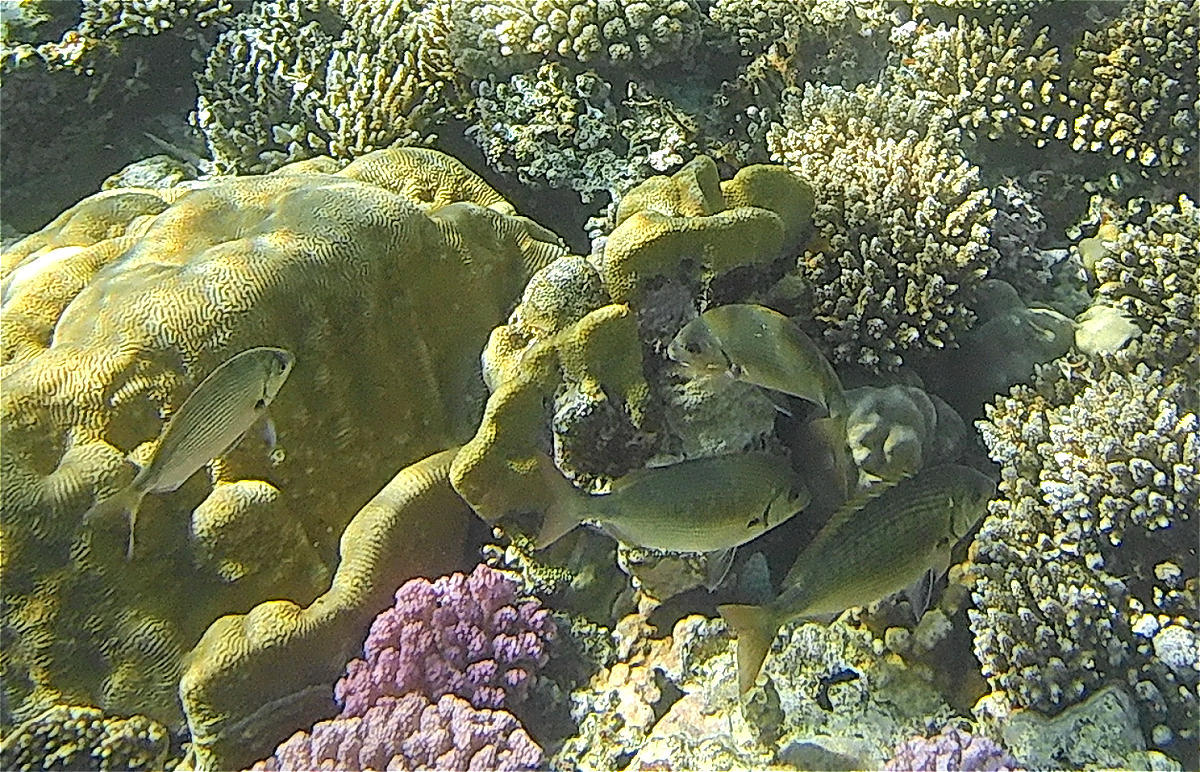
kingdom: Animalia
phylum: Chordata
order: Perciformes
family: Sparidae
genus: Diplodus
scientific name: Diplodus noct
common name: Arabian pinfish
